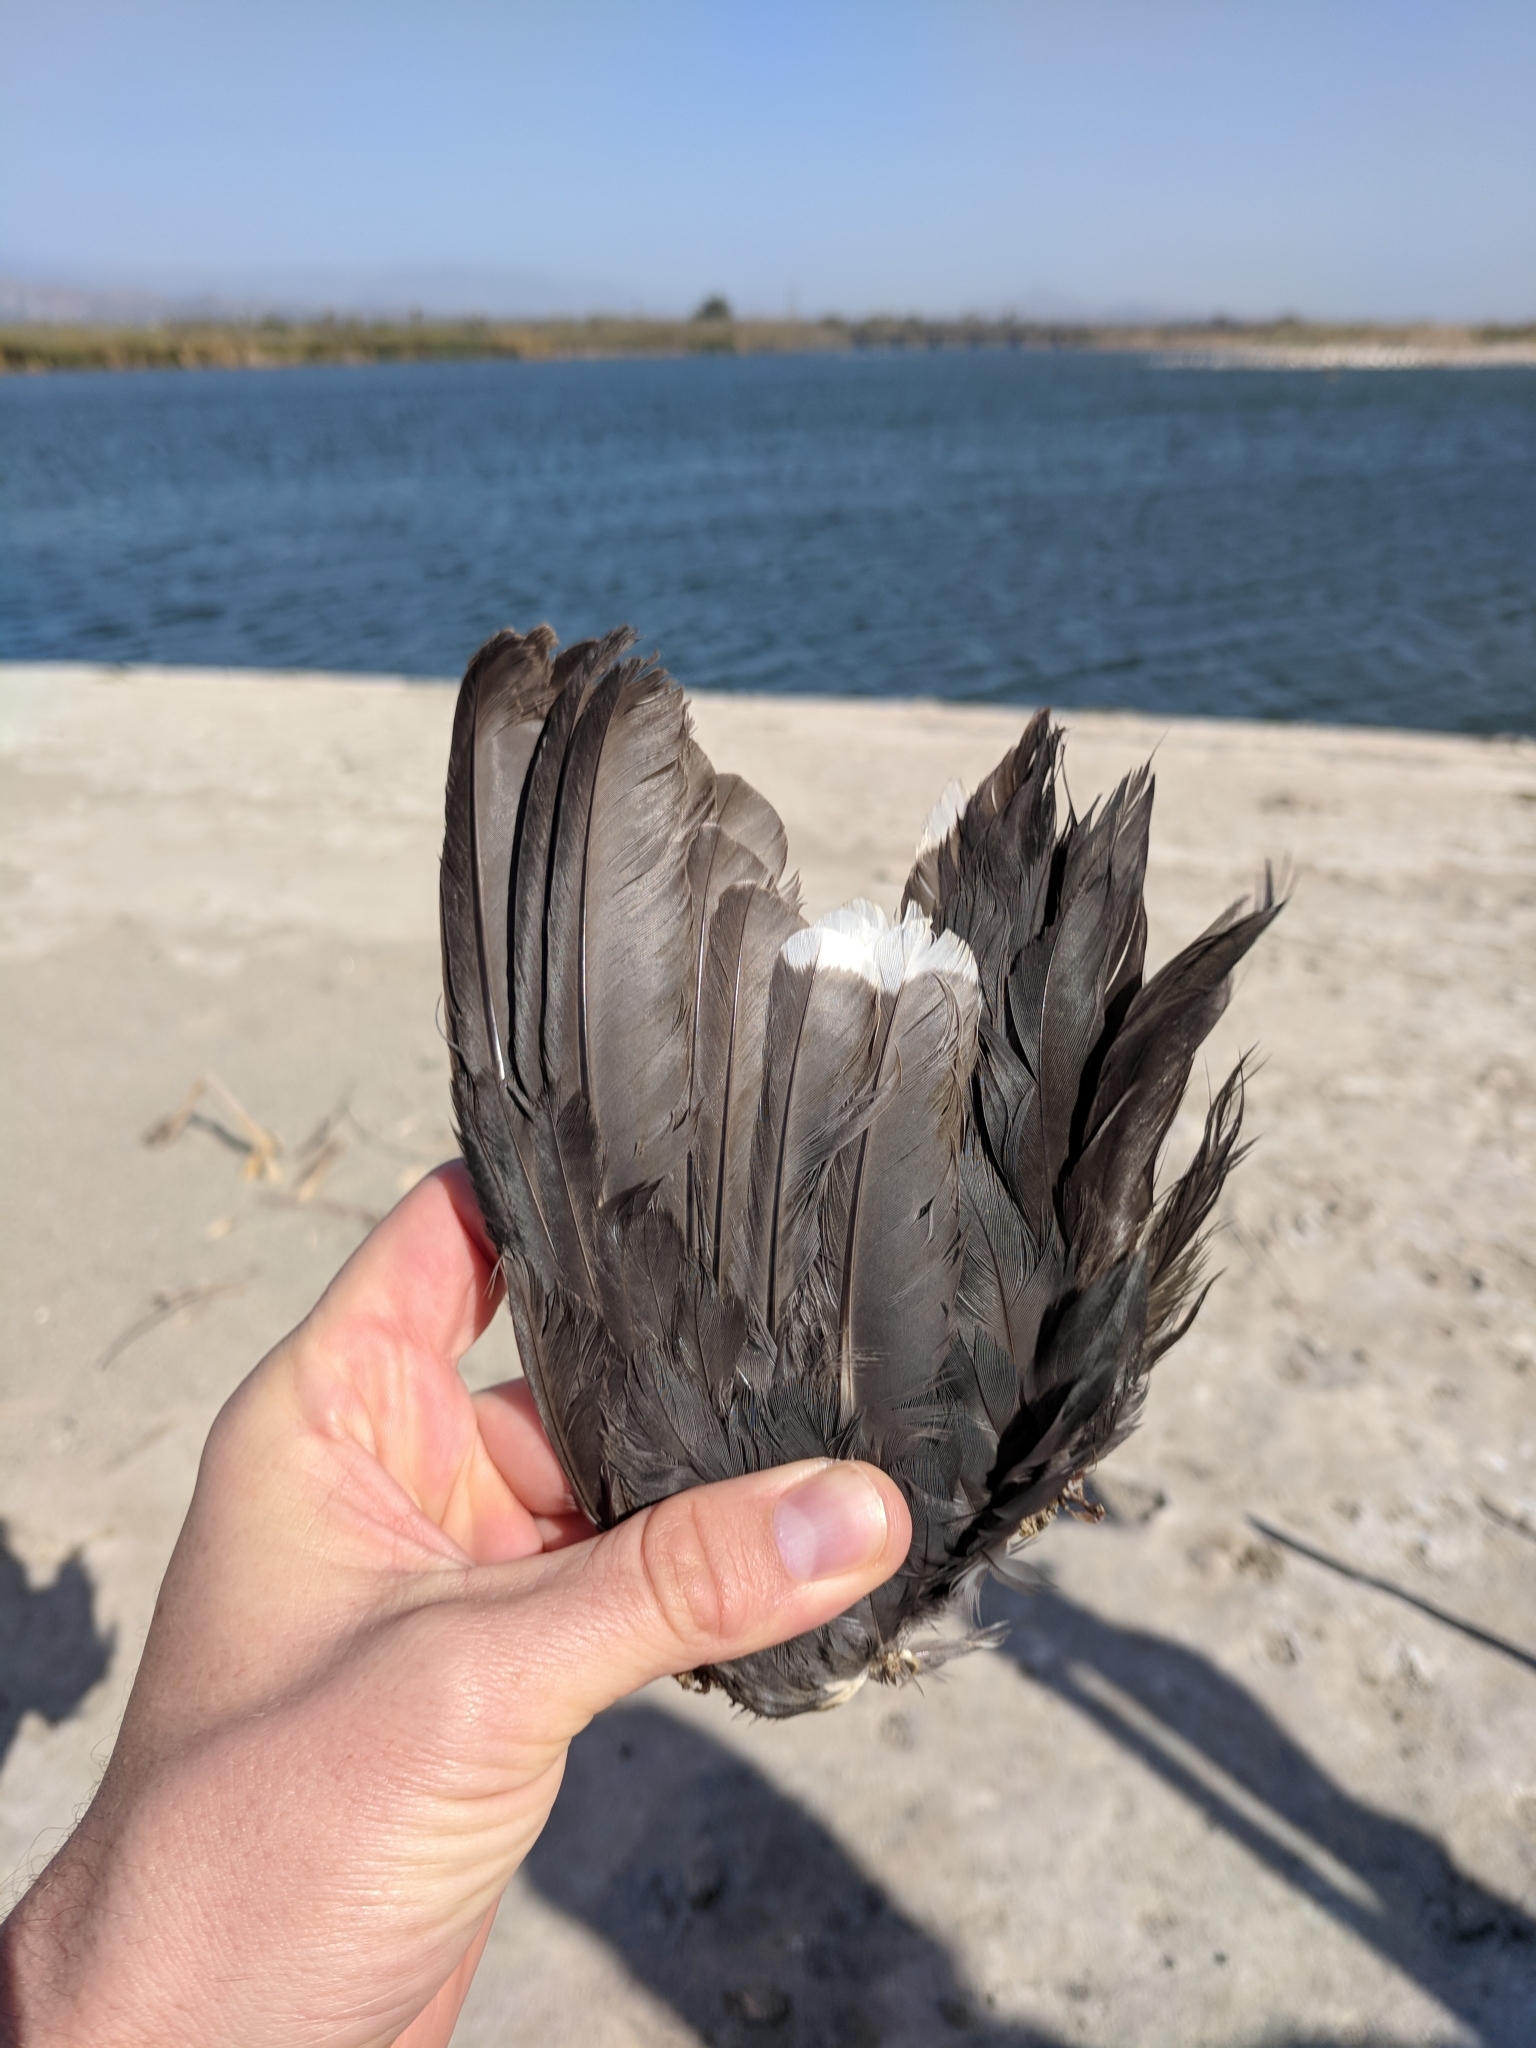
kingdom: Animalia
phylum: Chordata
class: Aves
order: Gruiformes
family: Rallidae
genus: Fulica
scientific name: Fulica americana
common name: American coot
